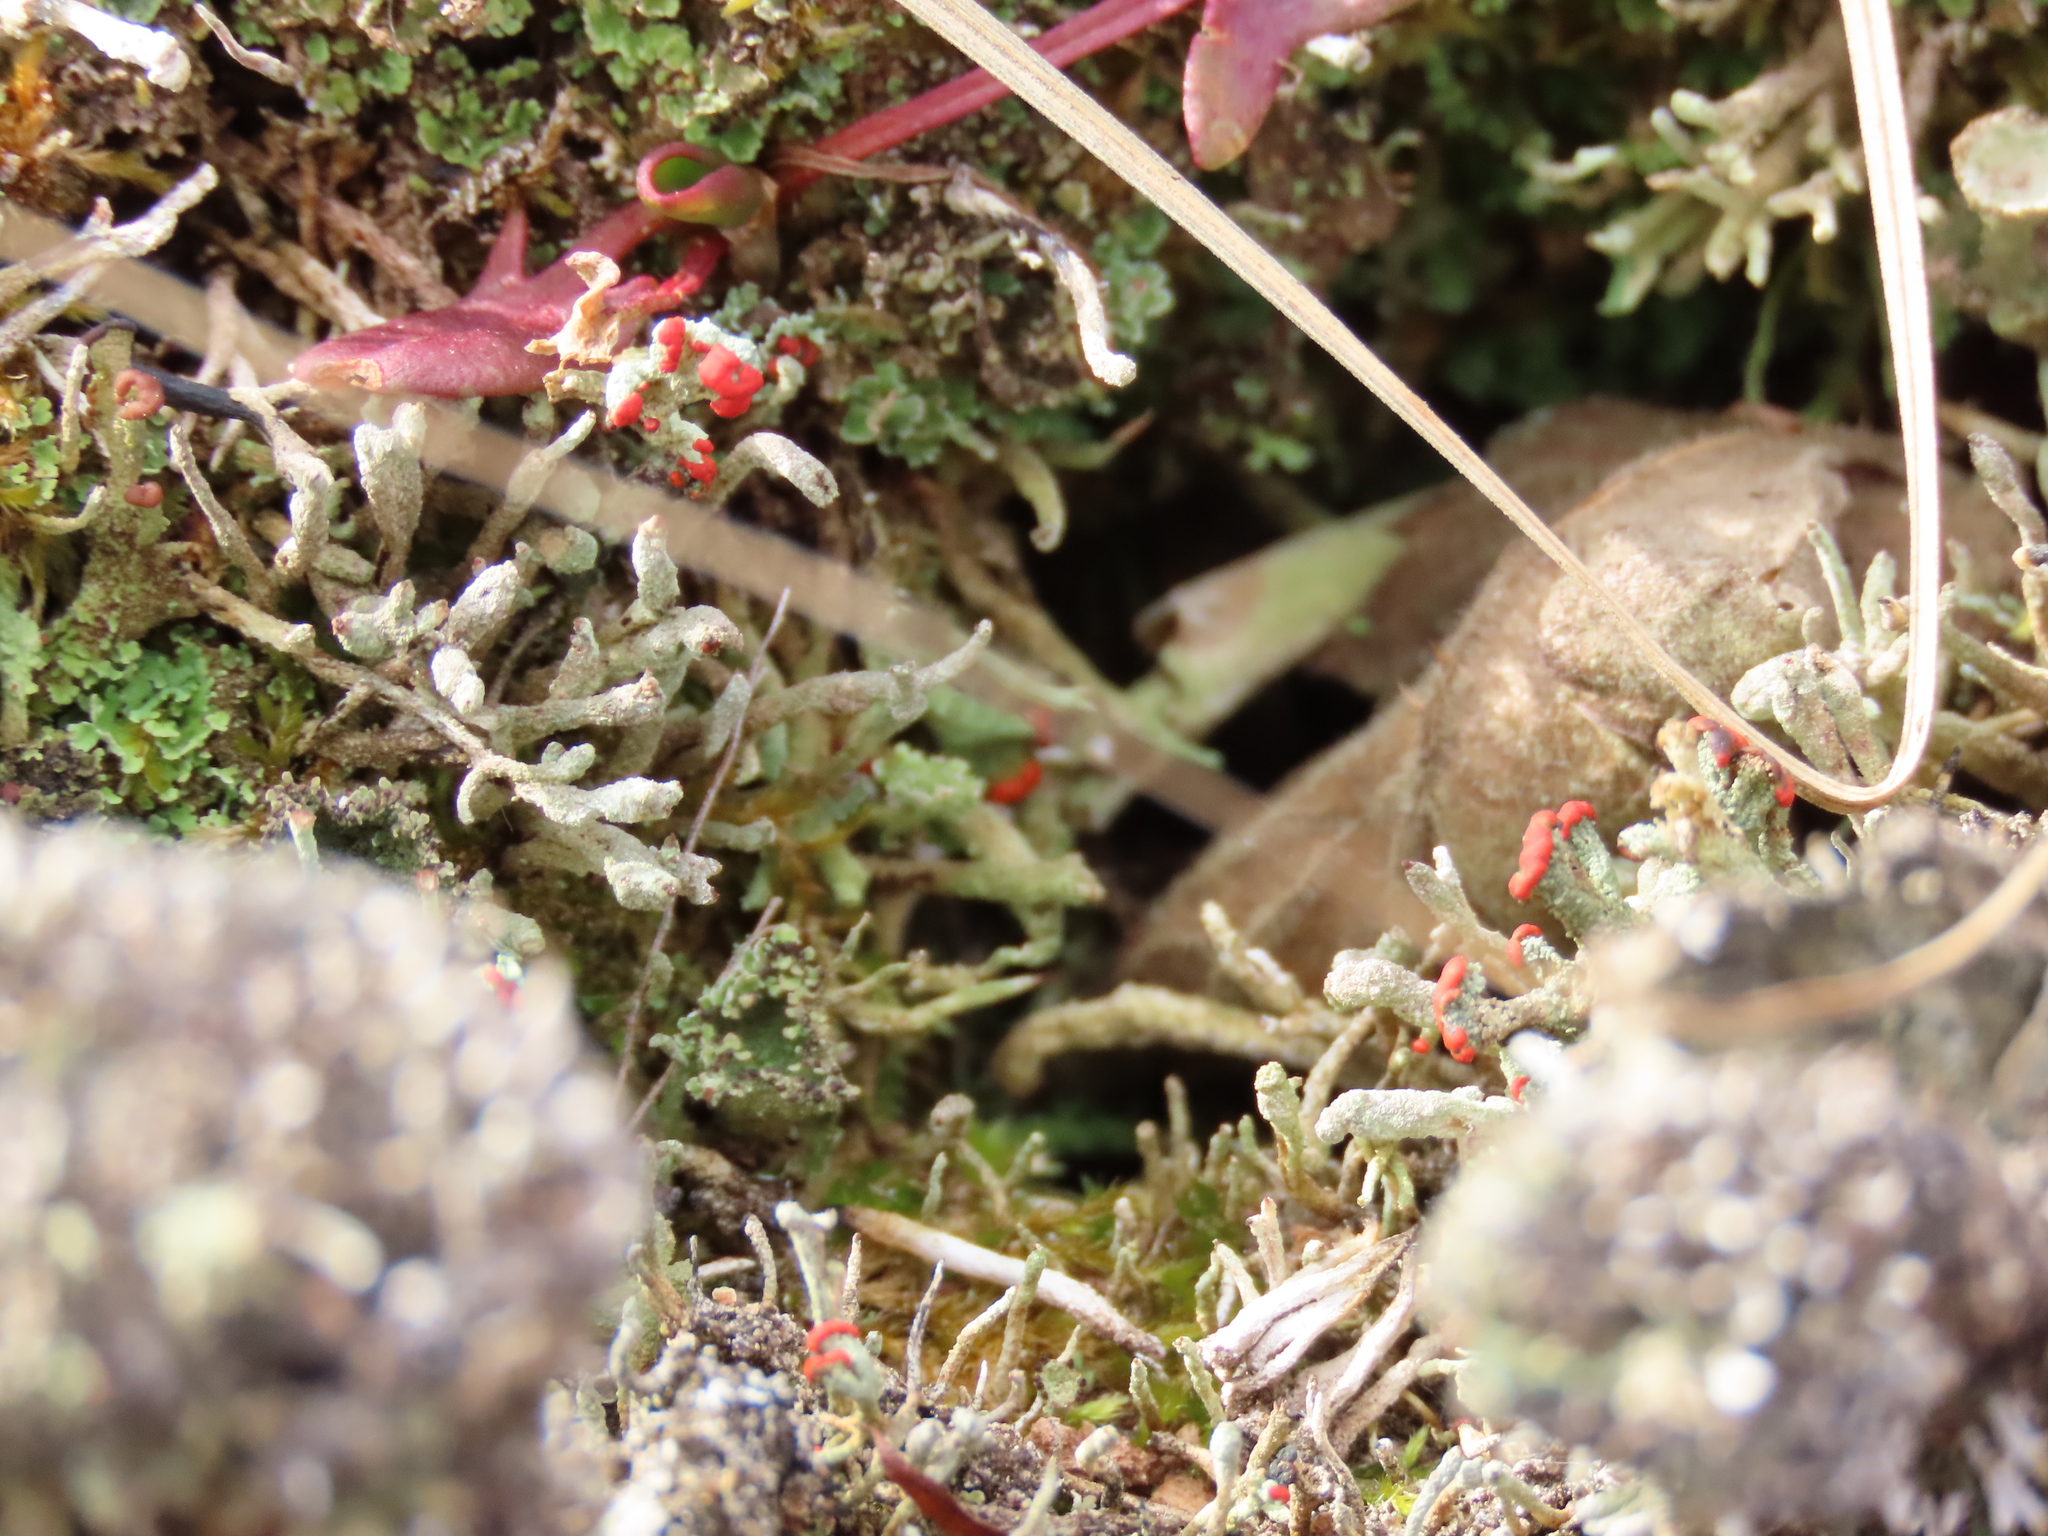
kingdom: Fungi
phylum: Ascomycota
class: Lecanoromycetes
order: Lecanorales
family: Cladoniaceae
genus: Cladonia
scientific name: Cladonia cristatella
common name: British soldier lichen
